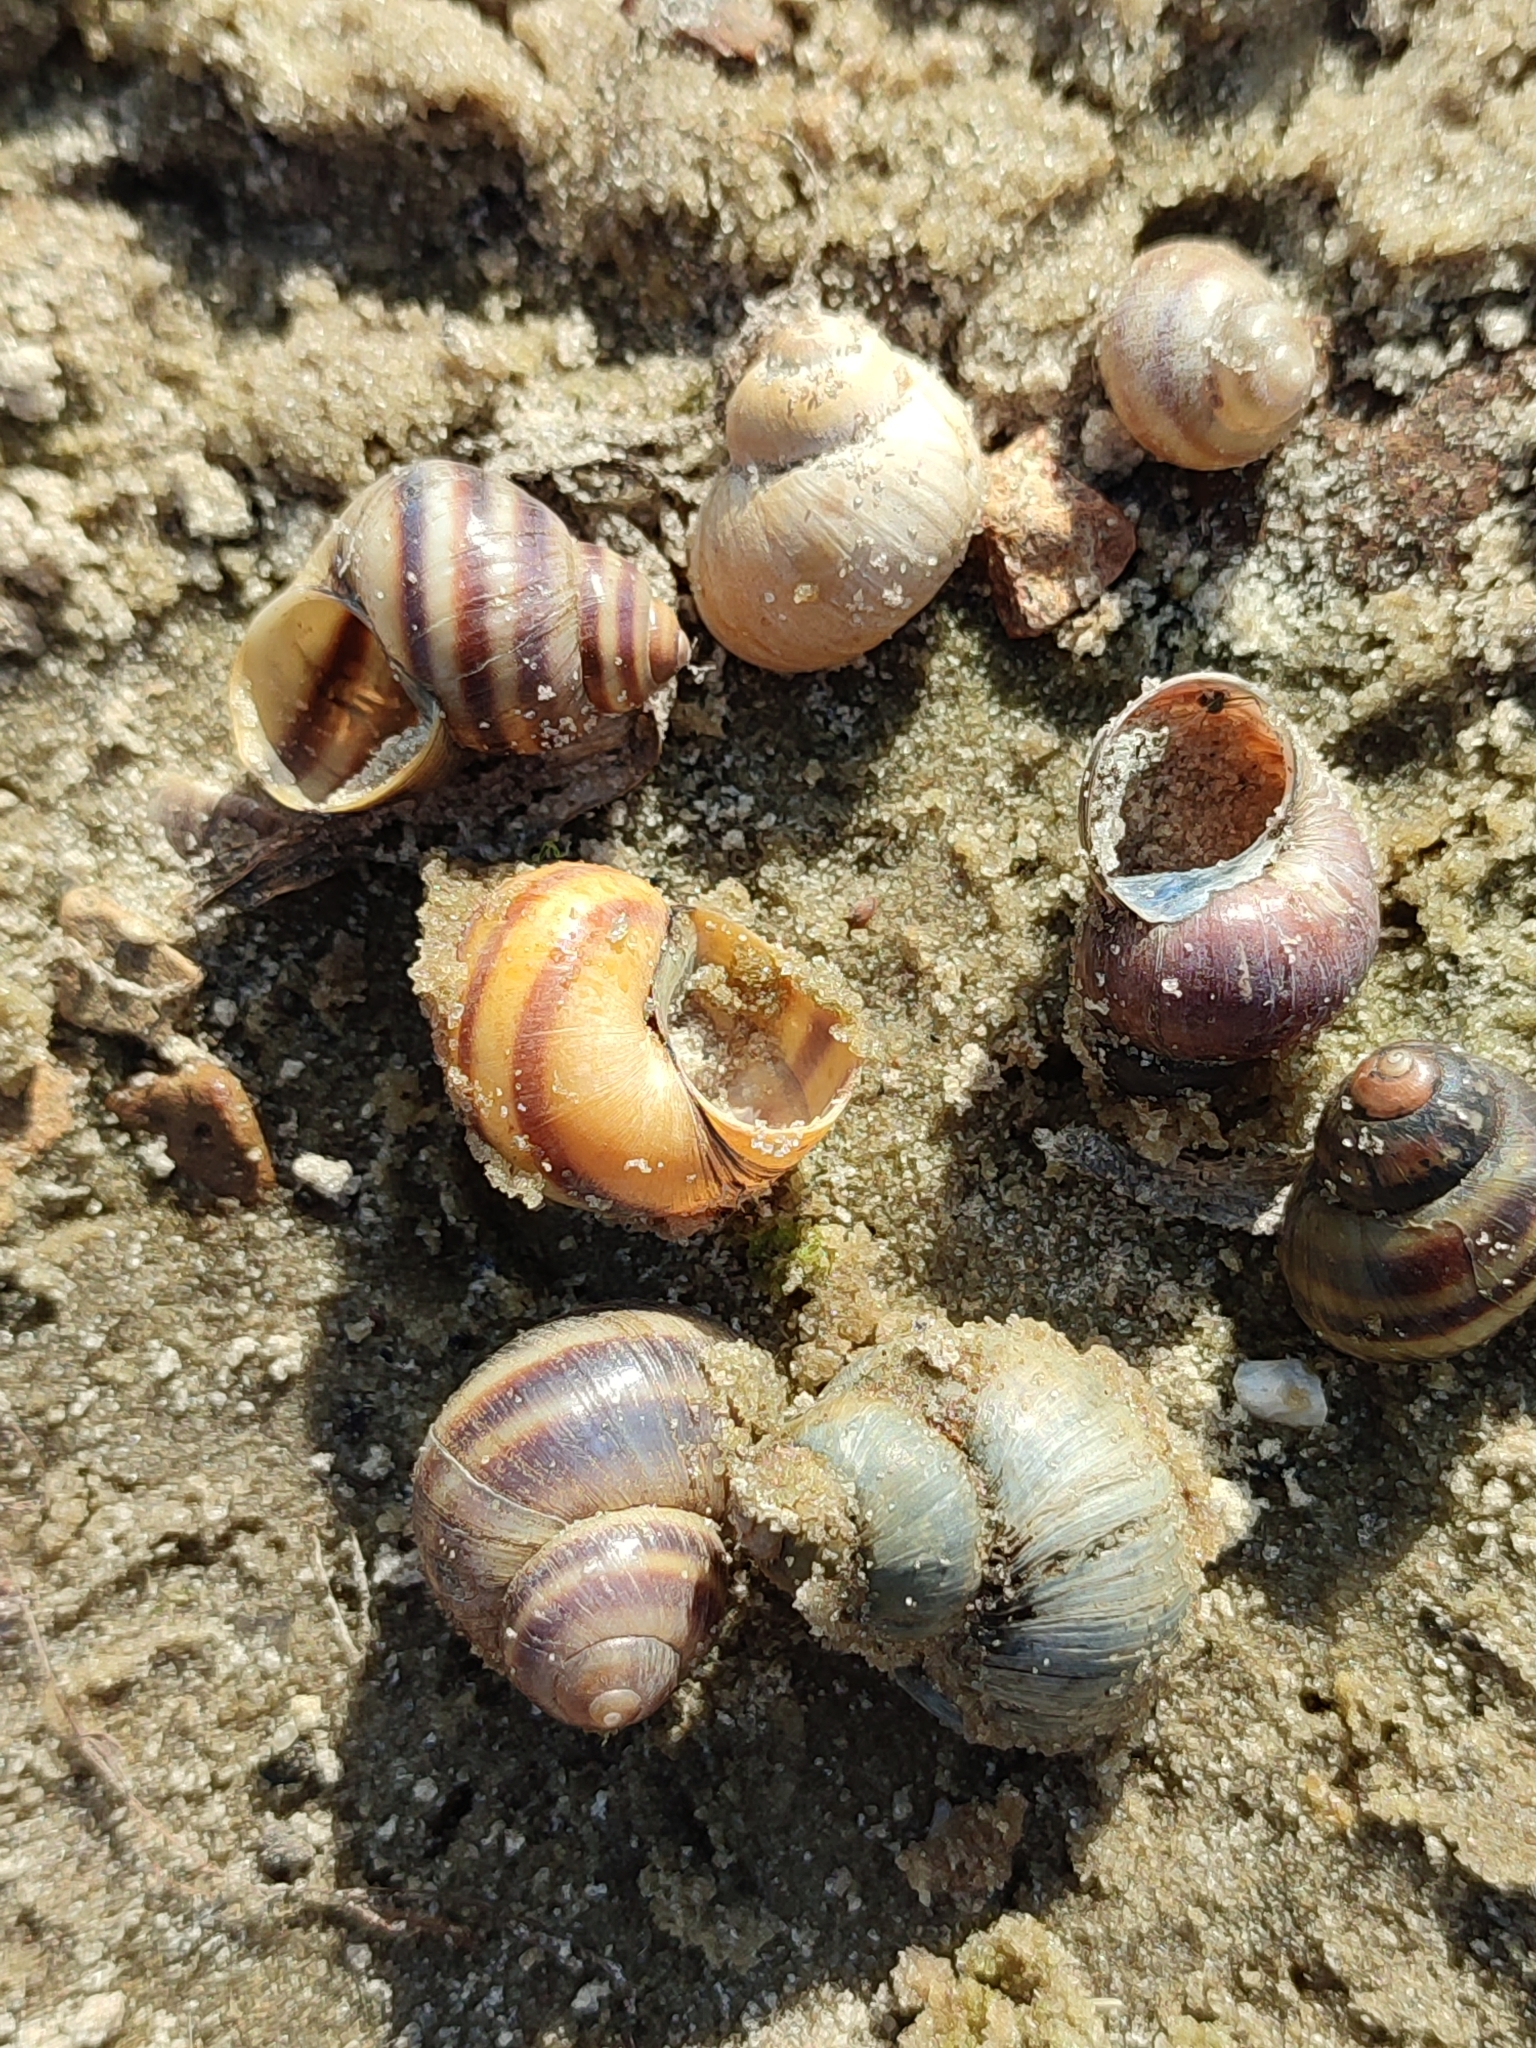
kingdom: Animalia
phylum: Mollusca
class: Gastropoda
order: Architaenioglossa
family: Viviparidae
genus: Viviparus
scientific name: Viviparus viviparus
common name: River snail
